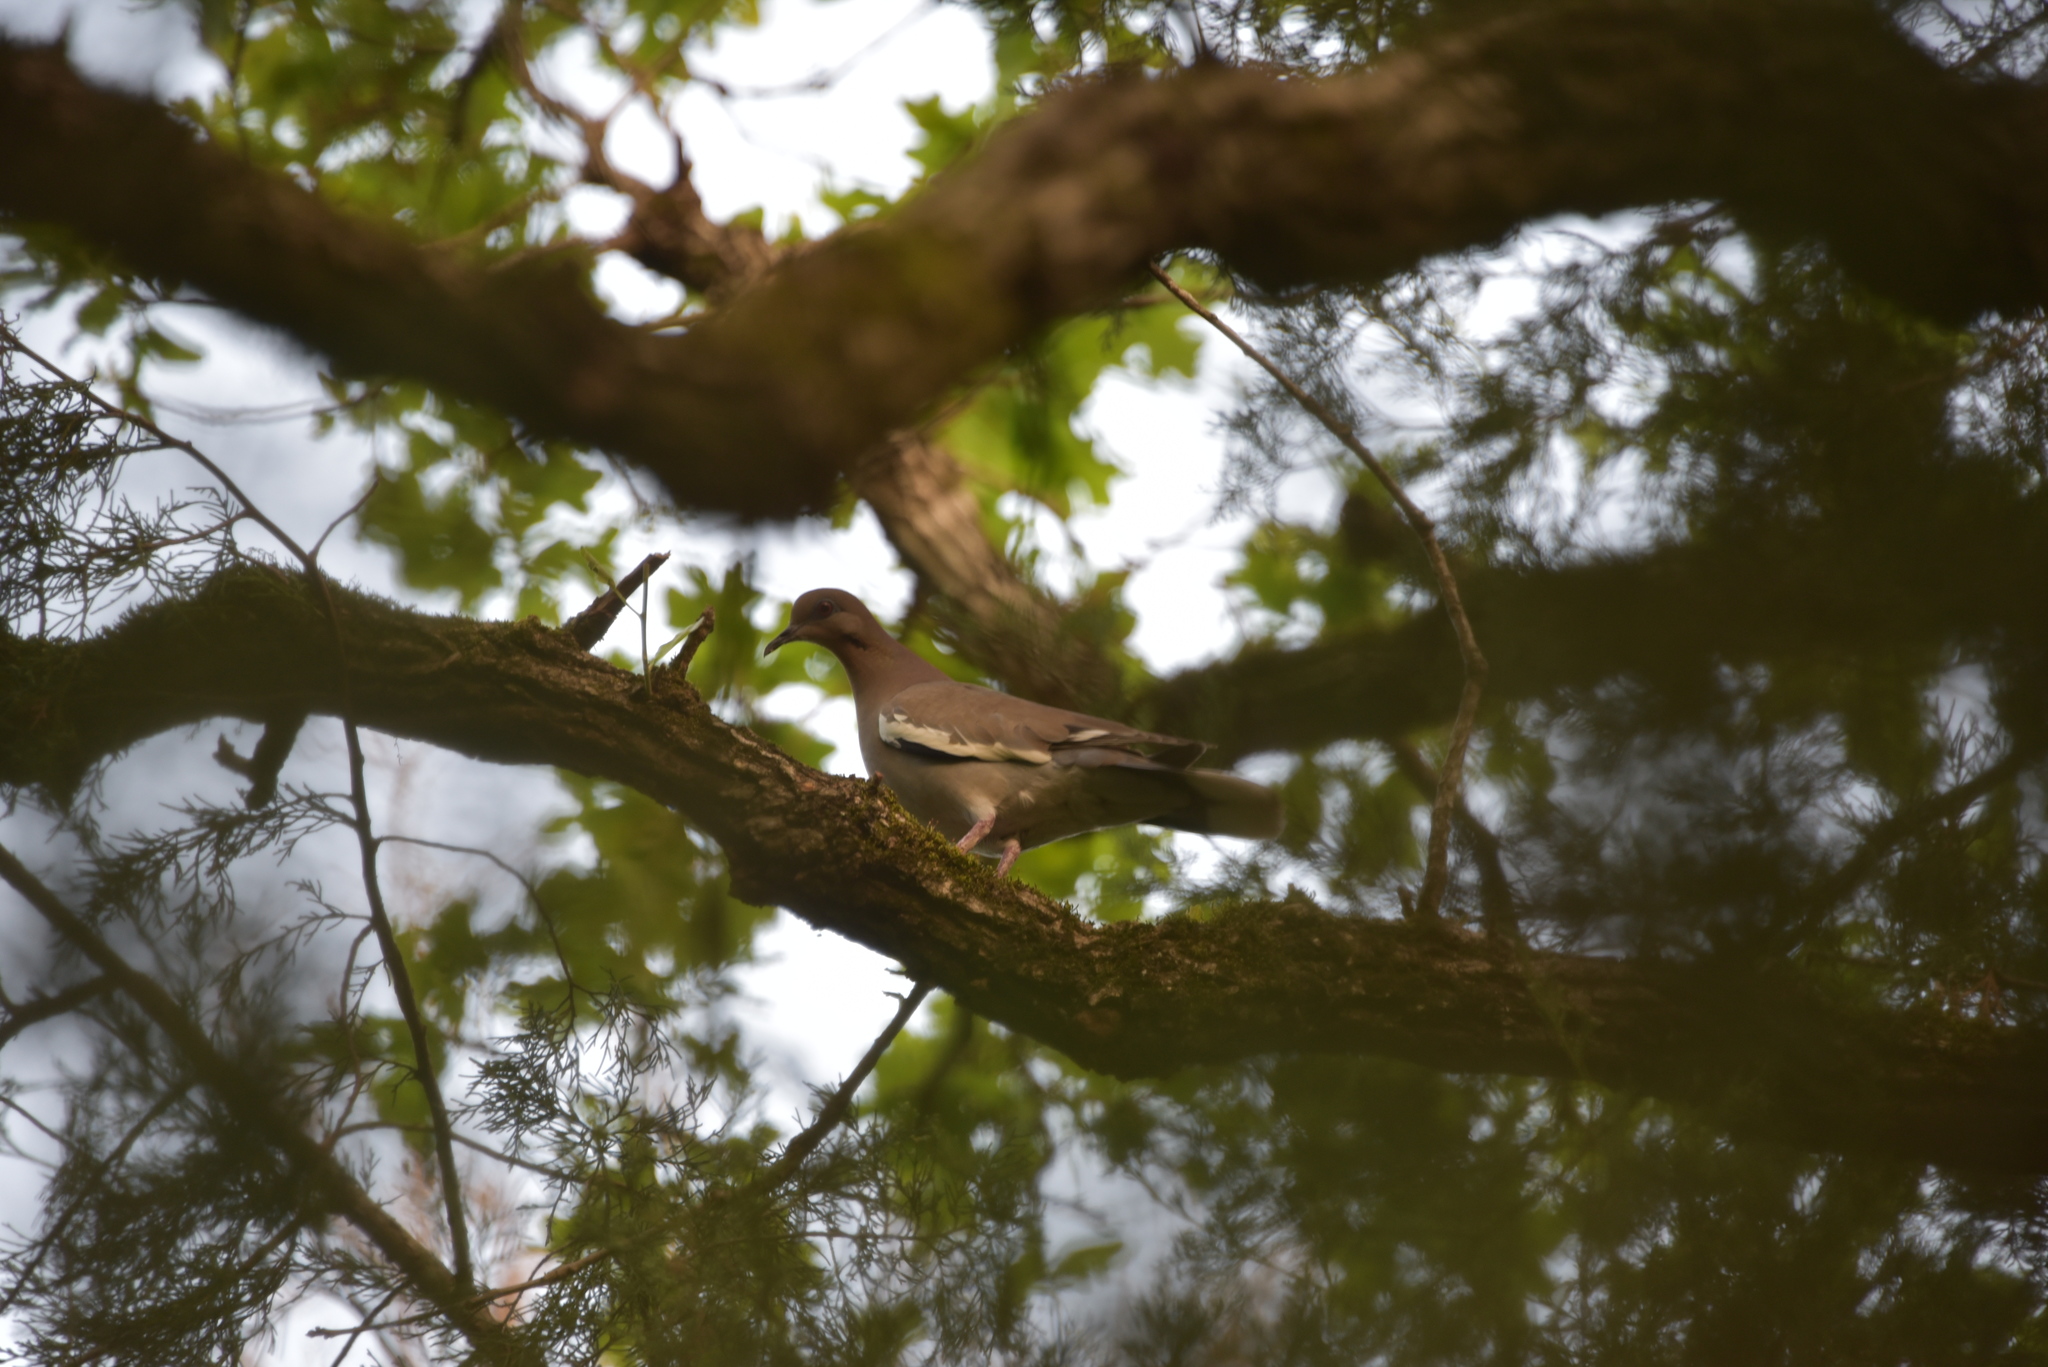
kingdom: Animalia
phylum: Chordata
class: Aves
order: Columbiformes
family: Columbidae
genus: Zenaida
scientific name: Zenaida asiatica
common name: White-winged dove
